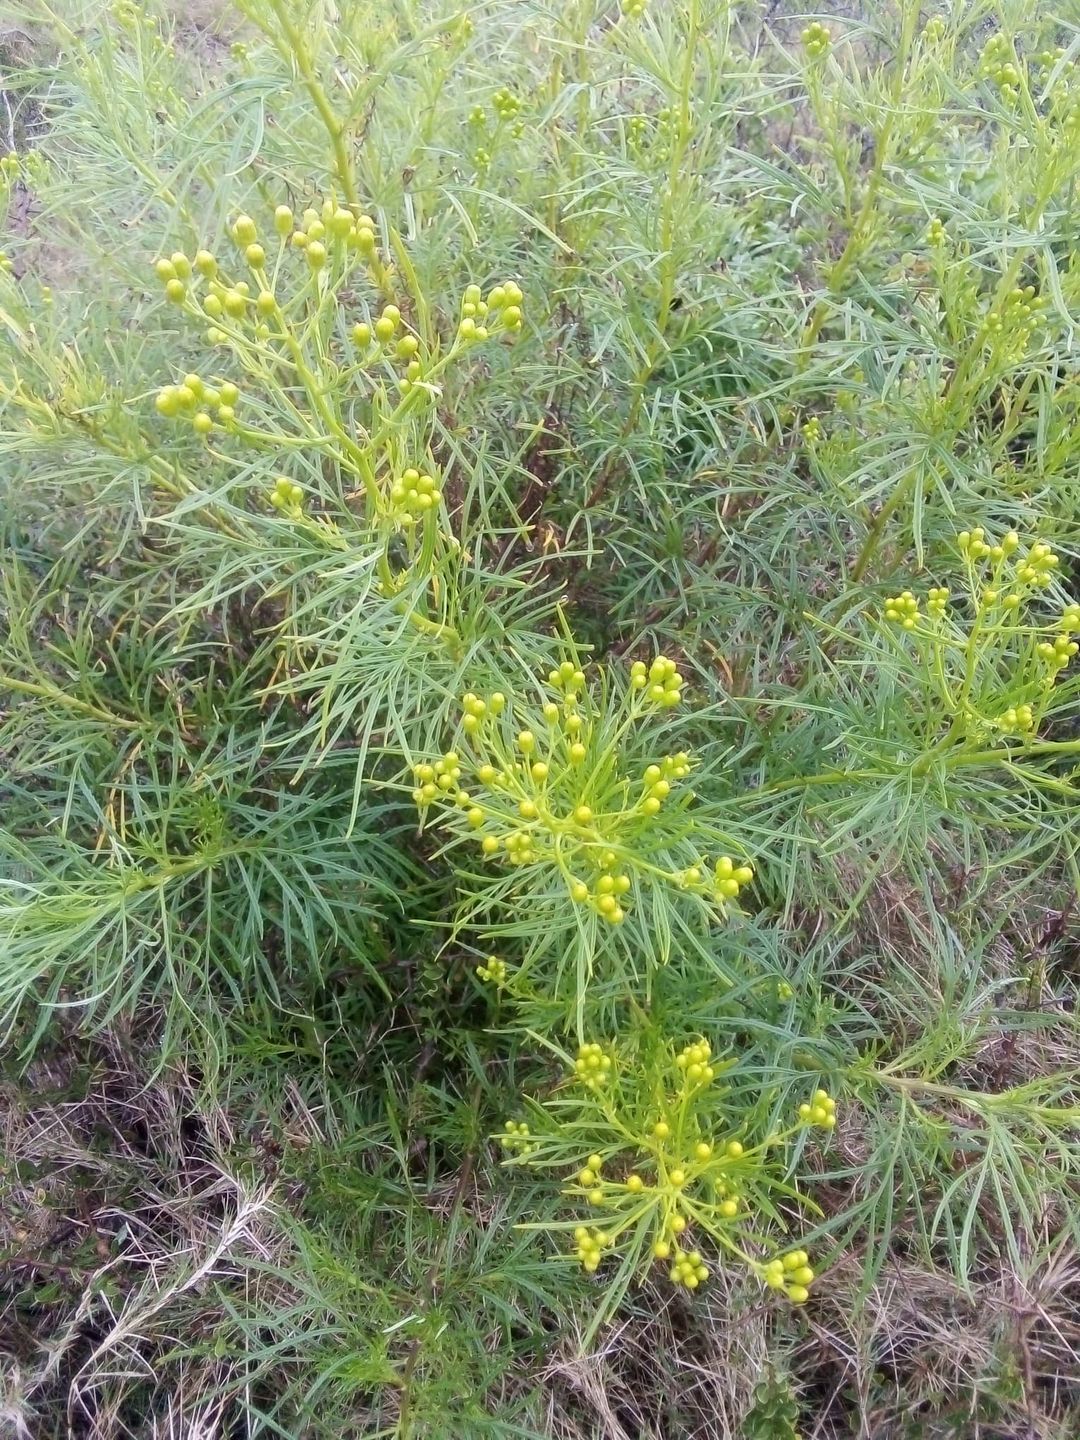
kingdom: Plantae
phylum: Tracheophyta
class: Magnoliopsida
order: Asterales
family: Asteraceae
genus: Senecio
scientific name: Senecio brasiliensis
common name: Hemp-leaf ragwort
